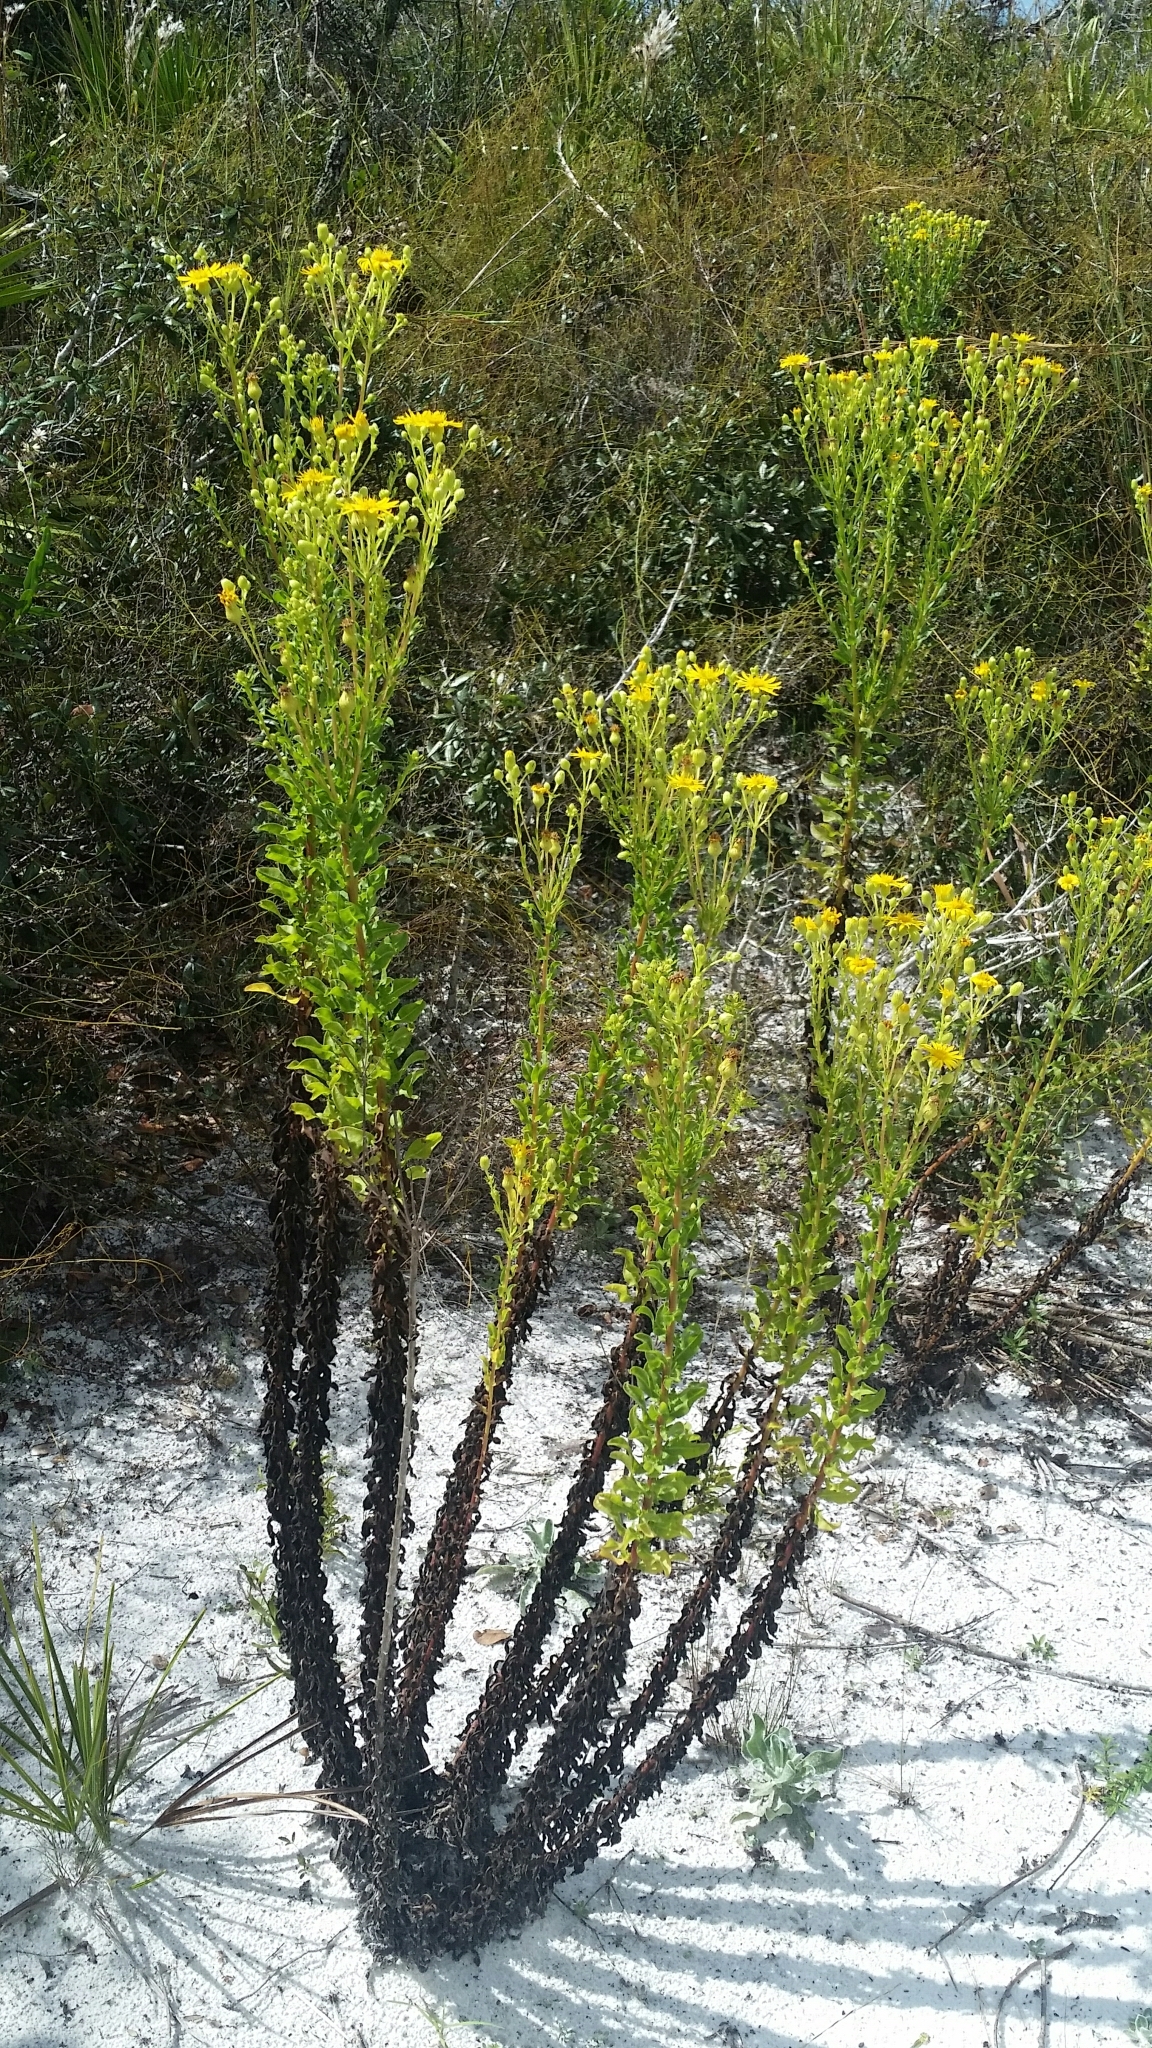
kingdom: Plantae
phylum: Tracheophyta
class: Magnoliopsida
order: Asterales
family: Asteraceae
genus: Chrysopsis
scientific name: Chrysopsis scabrella
